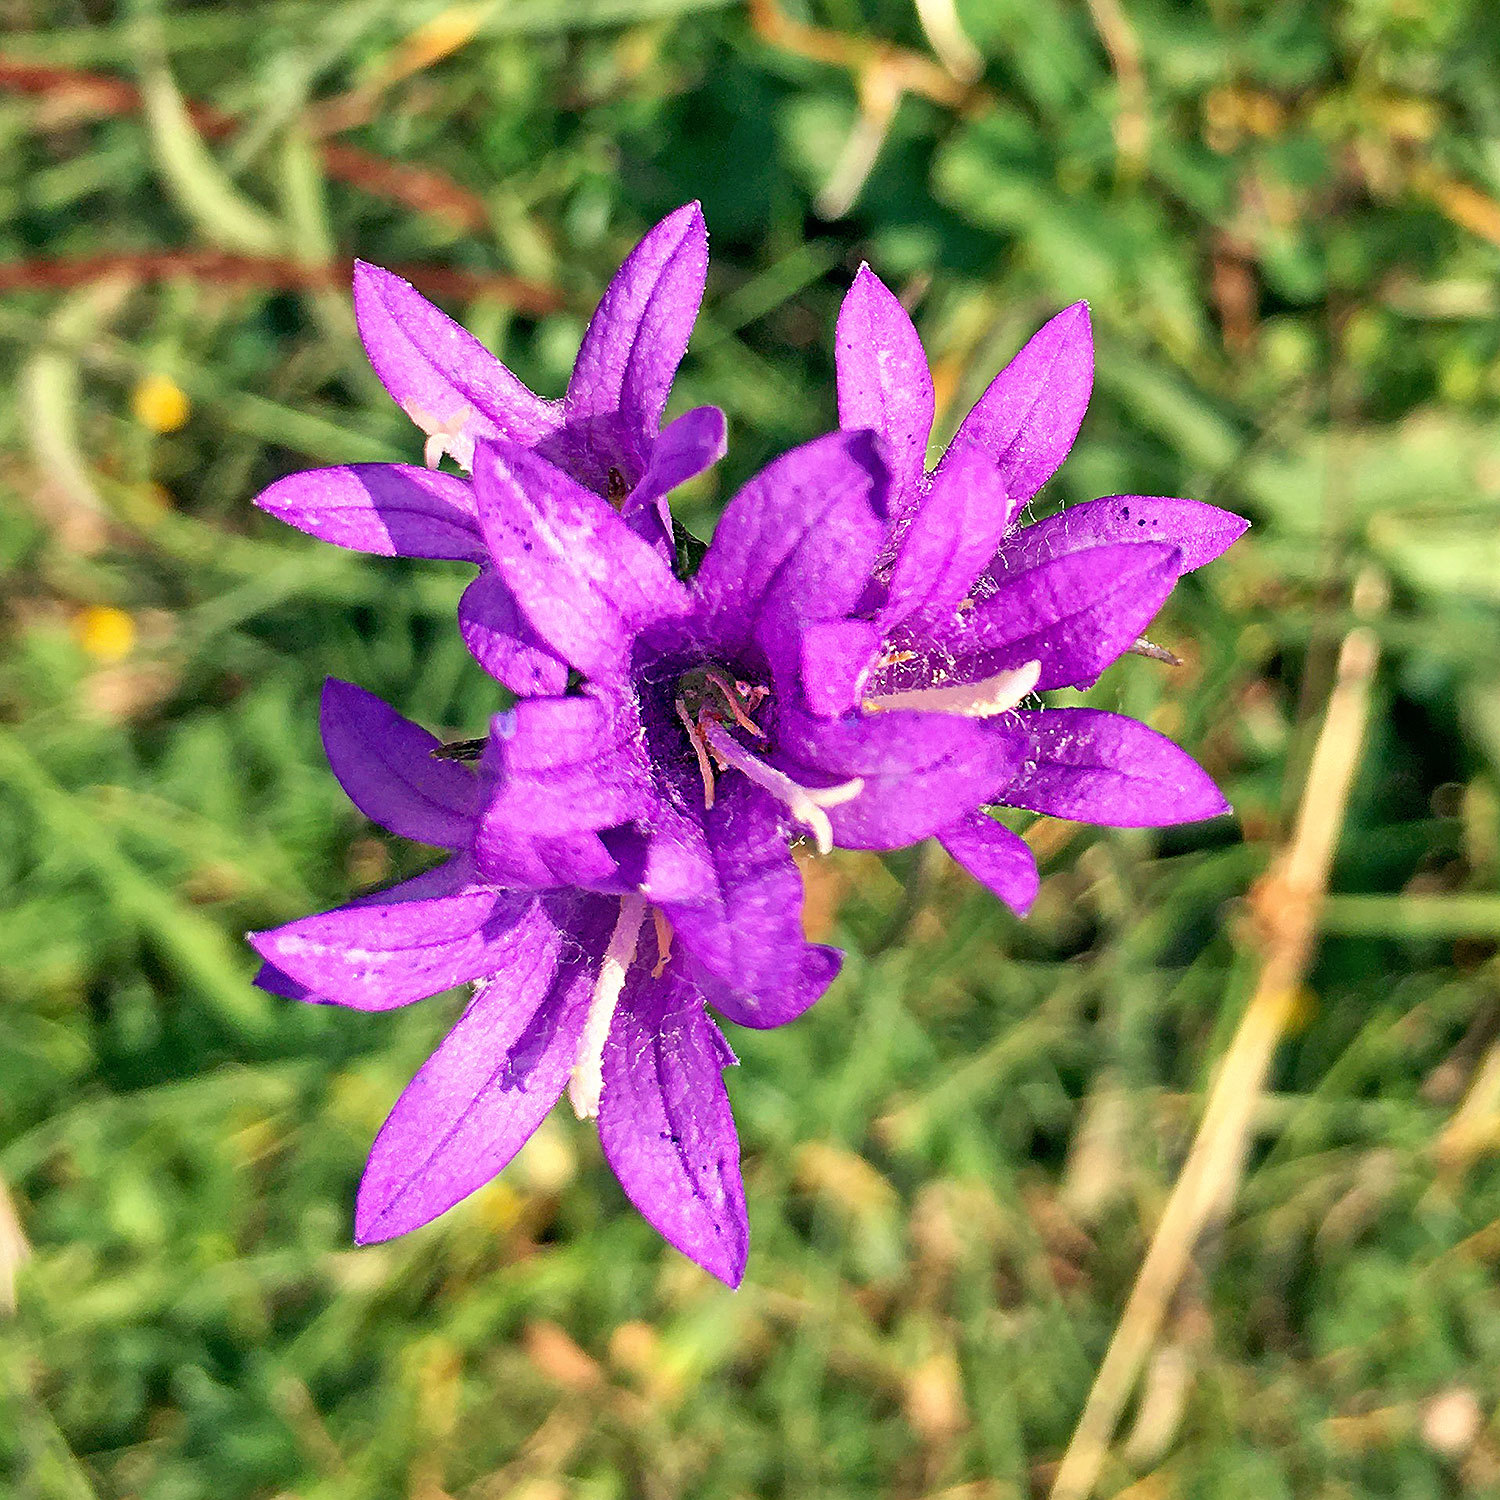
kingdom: Plantae
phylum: Tracheophyta
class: Magnoliopsida
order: Asterales
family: Campanulaceae
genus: Campanula
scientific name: Campanula glomerata
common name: Clustered bellflower
